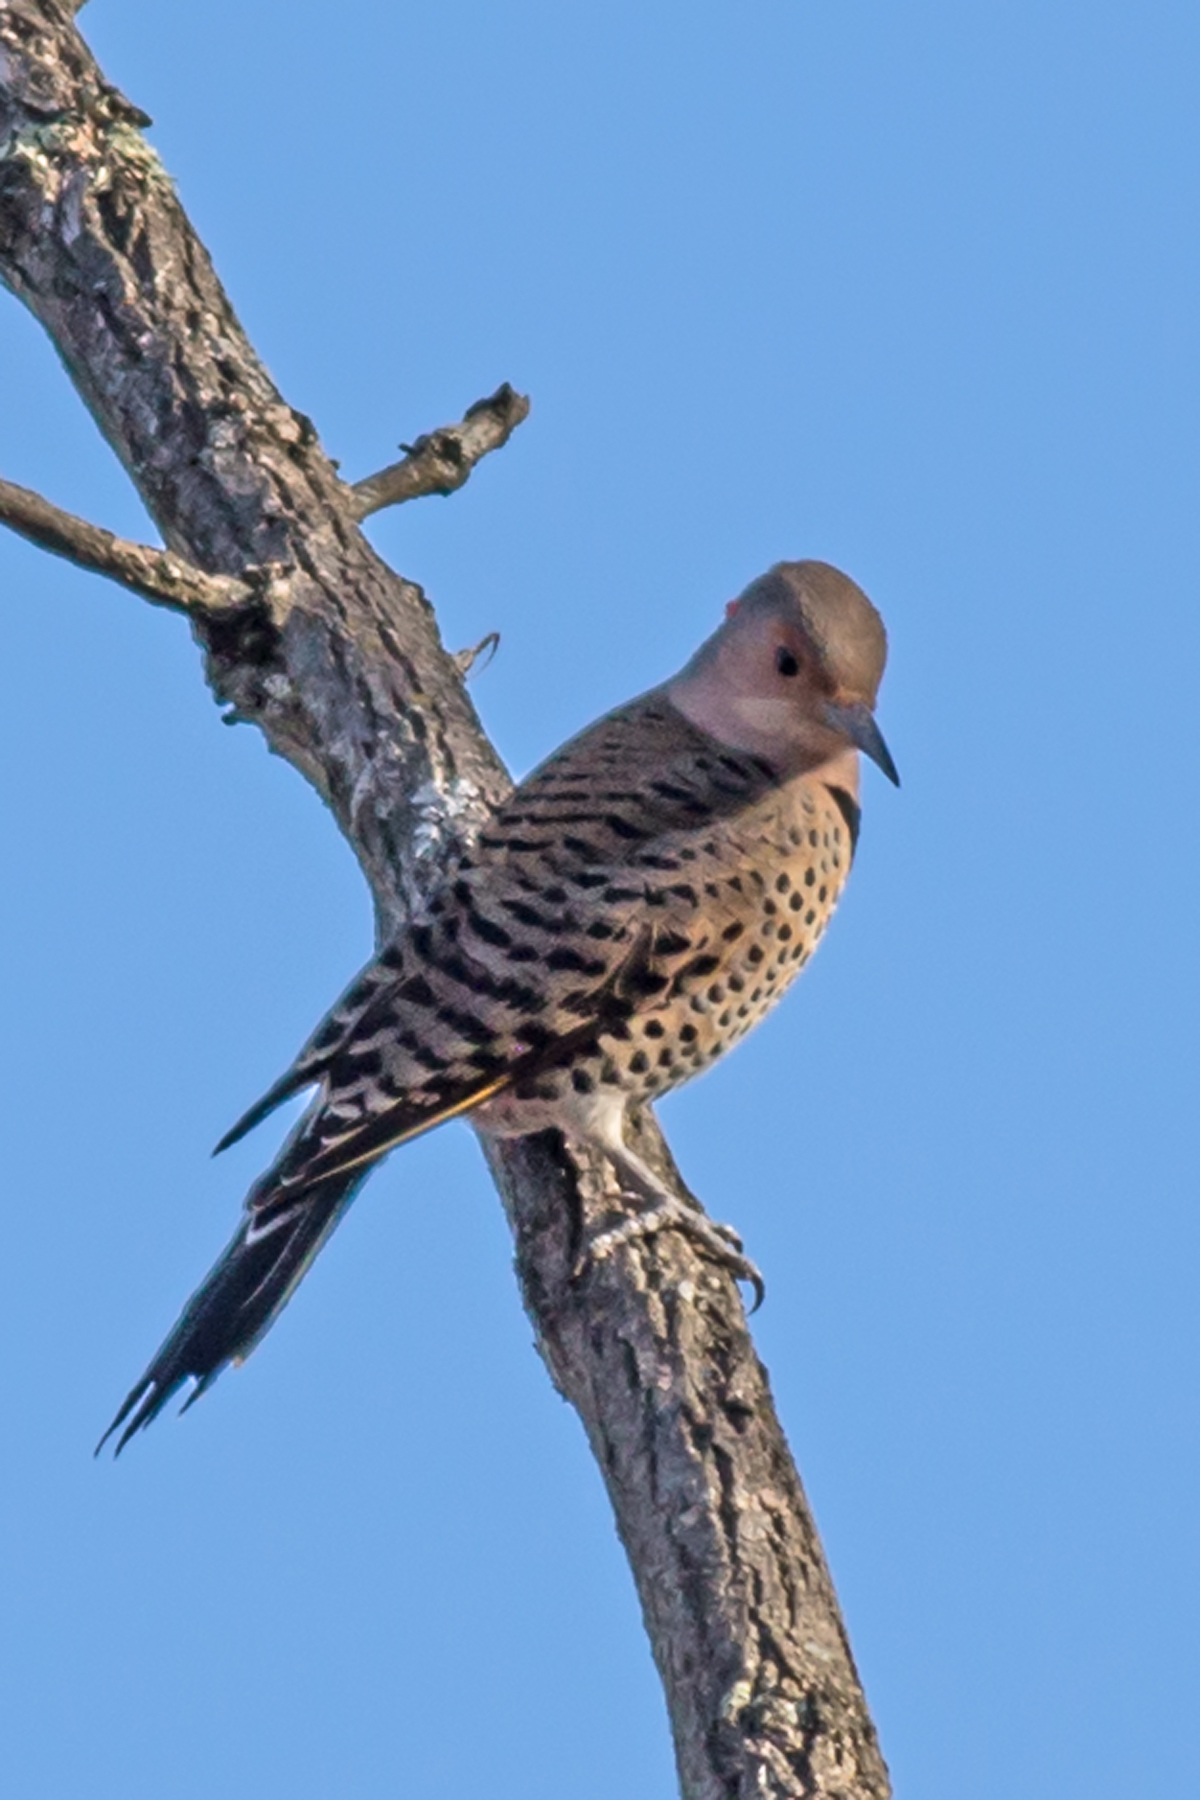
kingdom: Animalia
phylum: Chordata
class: Aves
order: Piciformes
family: Picidae
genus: Colaptes
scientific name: Colaptes auratus
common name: Northern flicker
